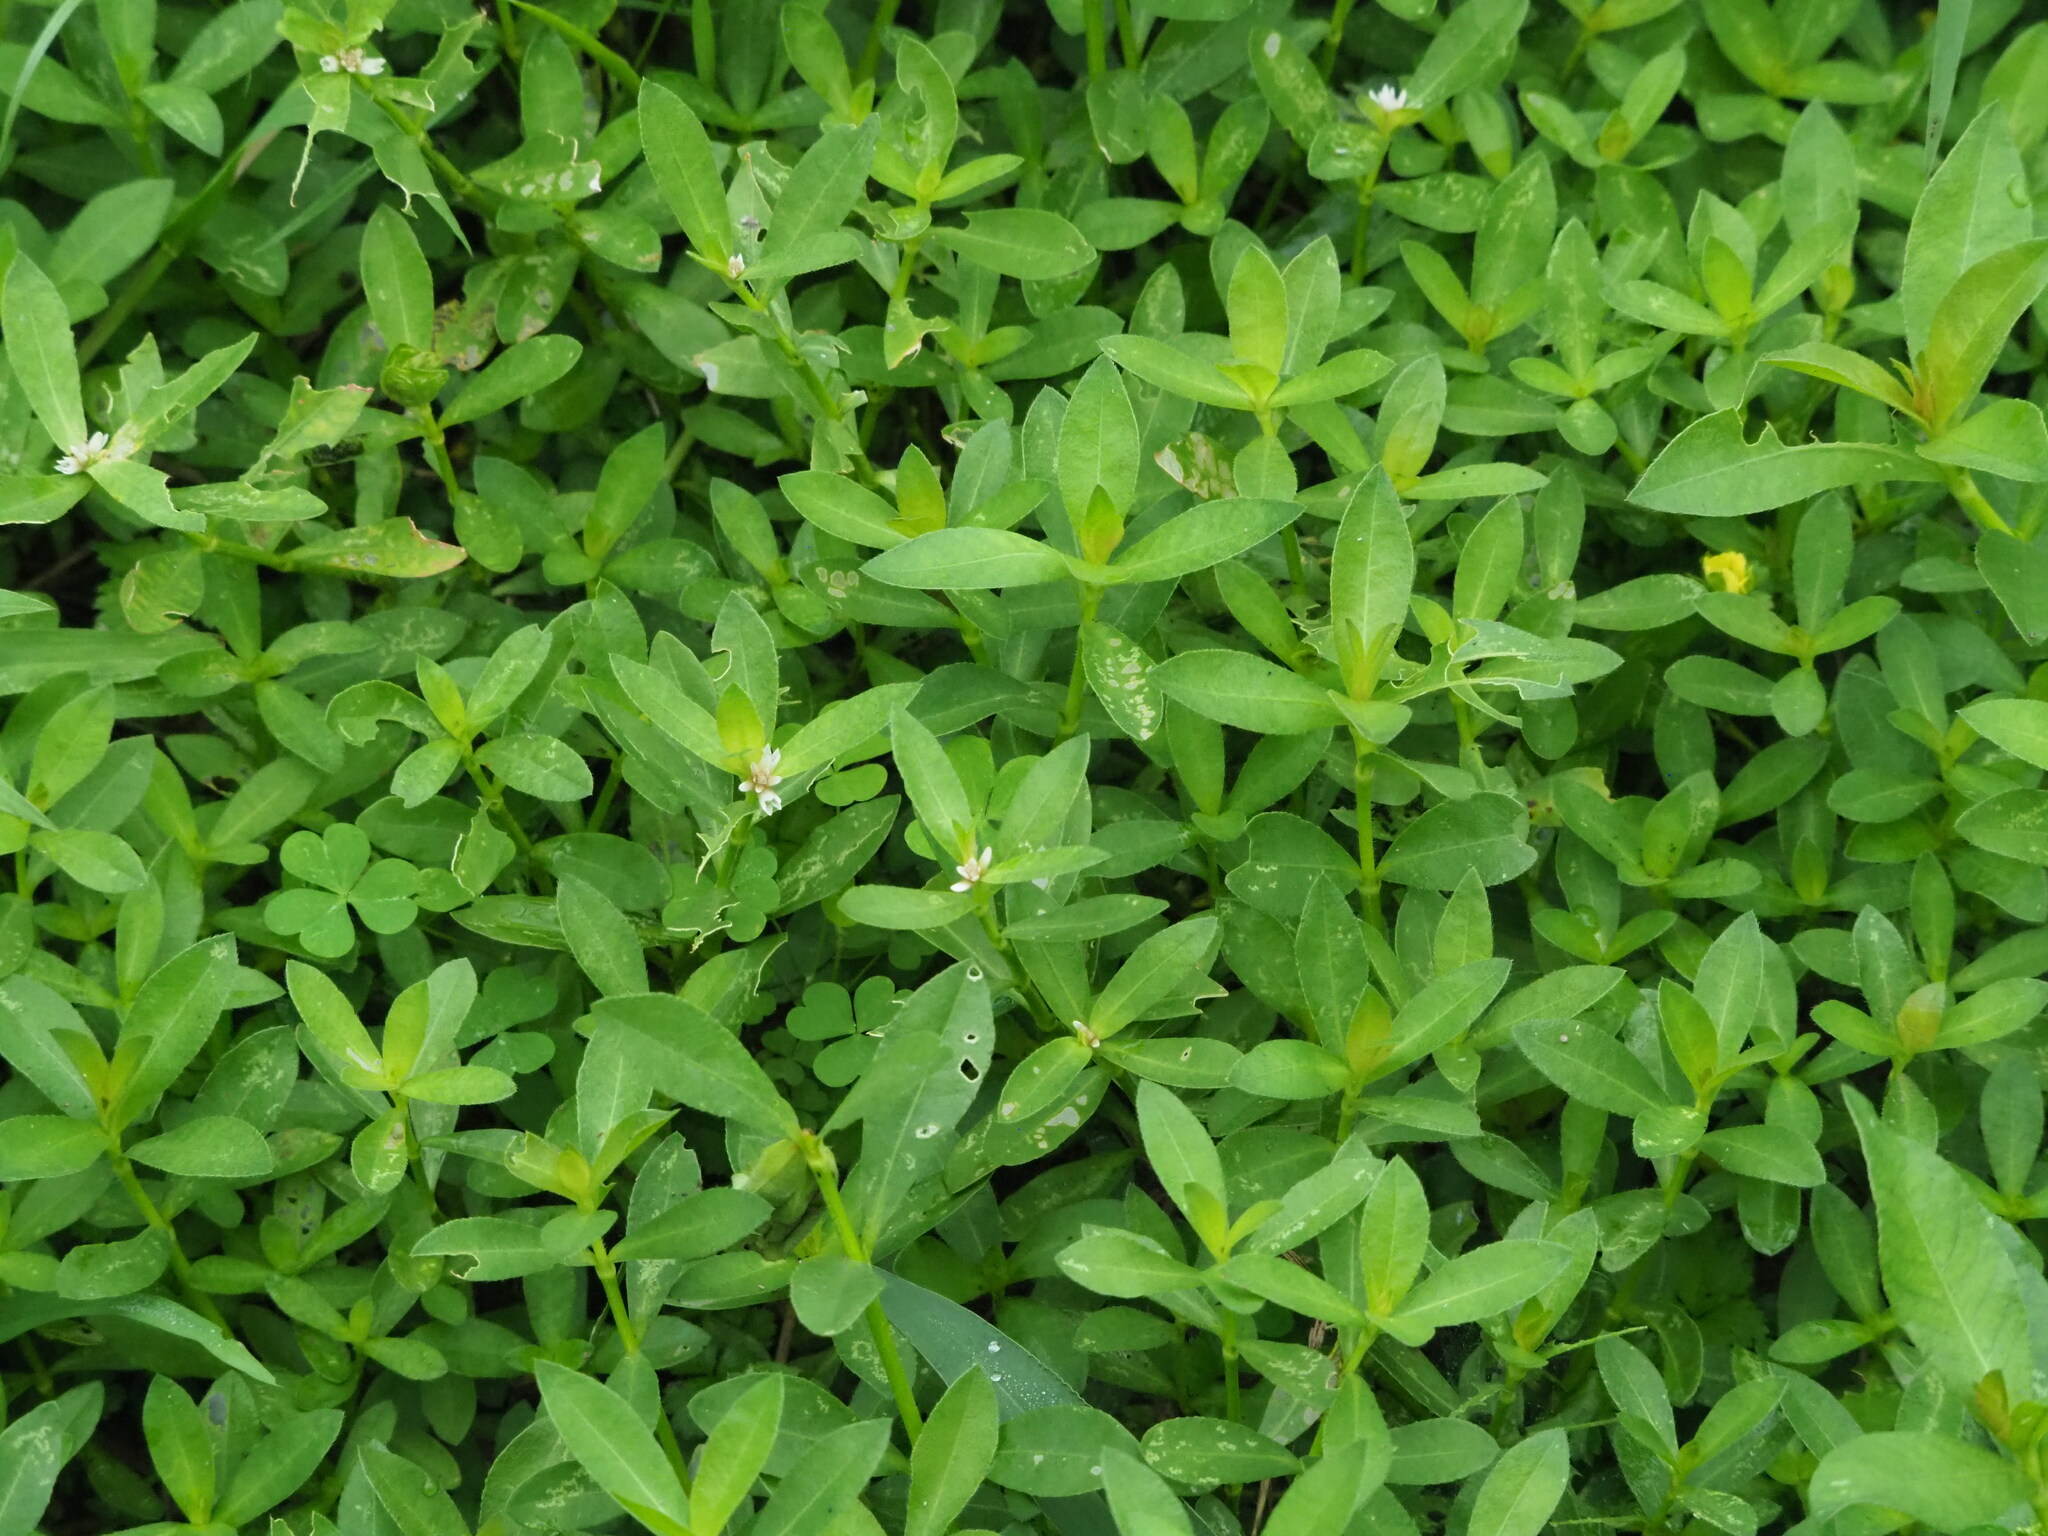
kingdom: Plantae
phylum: Tracheophyta
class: Magnoliopsida
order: Caryophyllales
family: Amaranthaceae
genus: Alternanthera
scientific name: Alternanthera philoxeroides
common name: Alligatorweed
